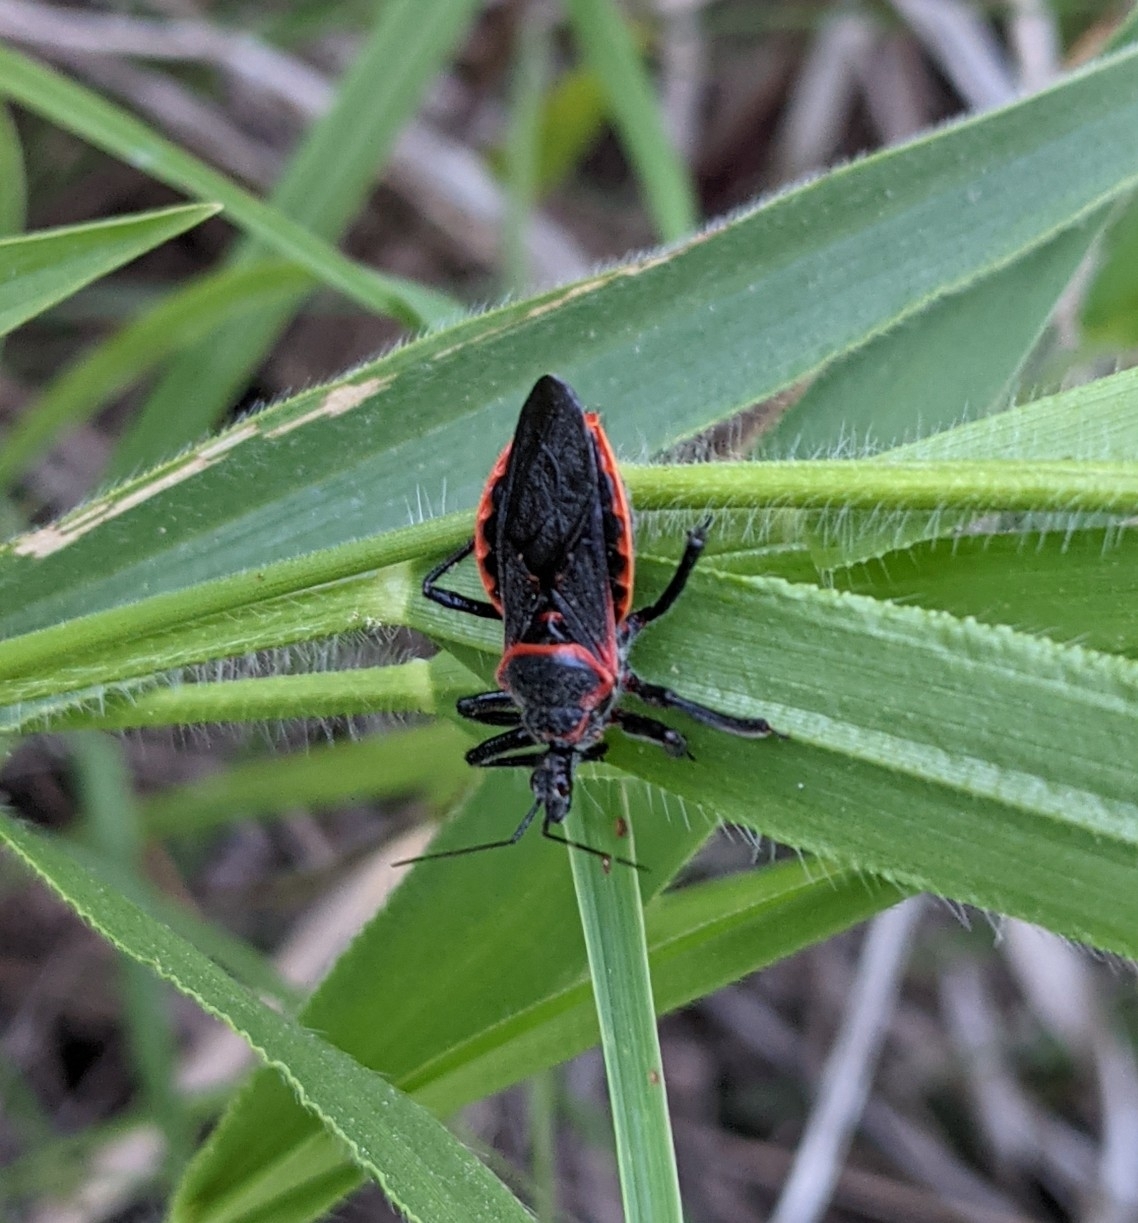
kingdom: Animalia
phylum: Arthropoda
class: Insecta
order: Hemiptera
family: Reduviidae
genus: Apiomerus
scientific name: Apiomerus crassipes
